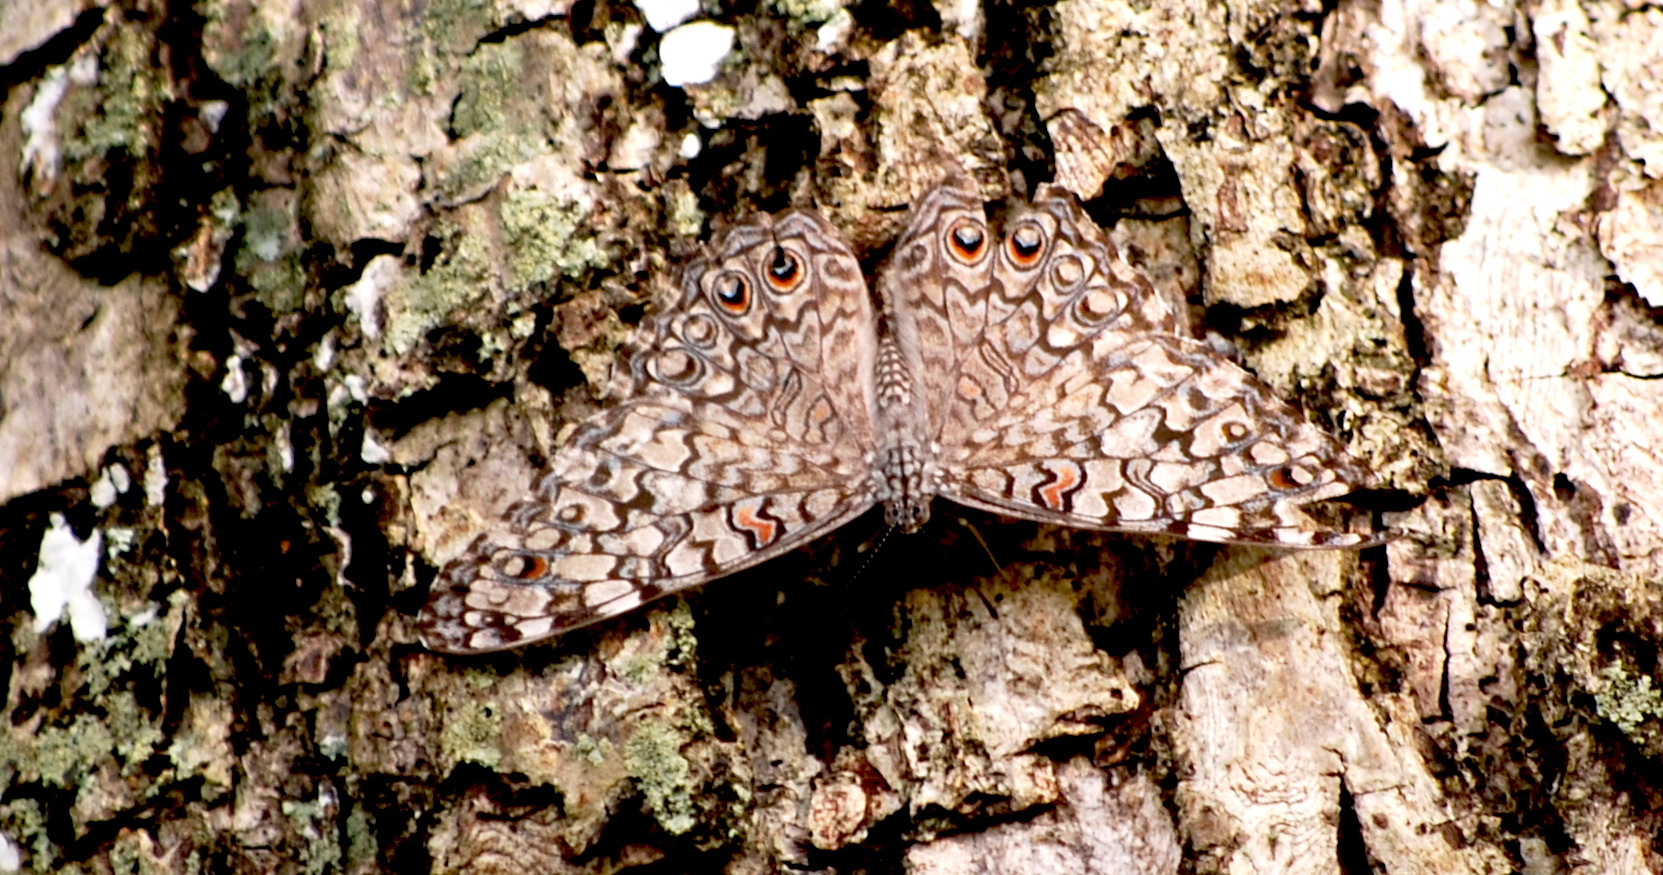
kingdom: Animalia
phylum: Arthropoda
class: Insecta
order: Lepidoptera
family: Nymphalidae
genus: Hamadryas
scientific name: Hamadryas februa
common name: Gray cracker
